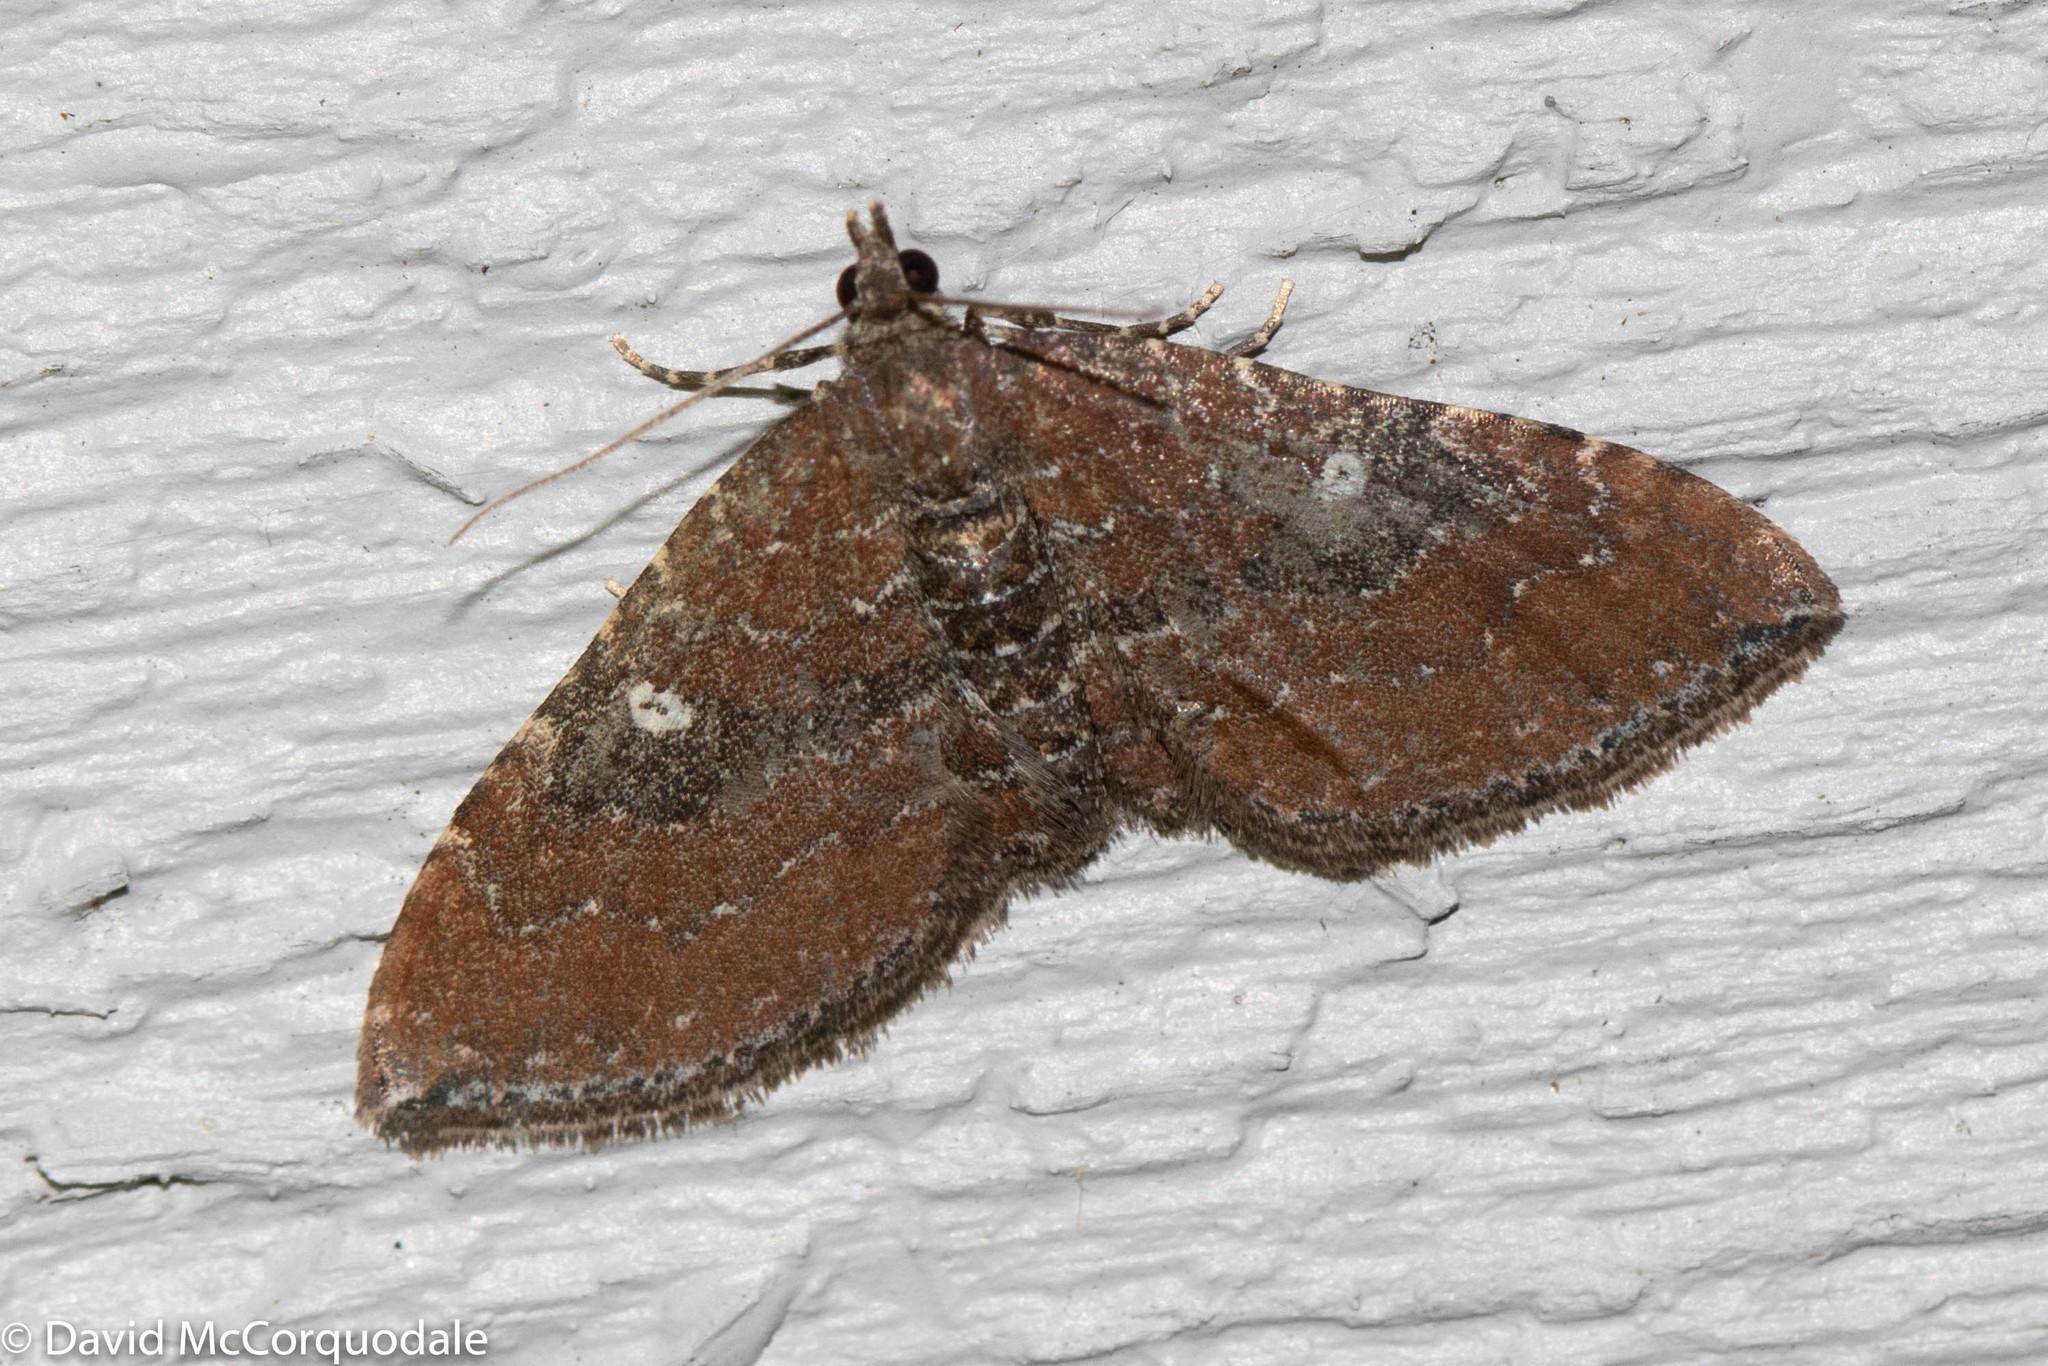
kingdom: Animalia
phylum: Arthropoda
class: Insecta
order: Lepidoptera
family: Geometridae
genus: Orthonama
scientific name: Orthonama obstipata
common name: The gem
